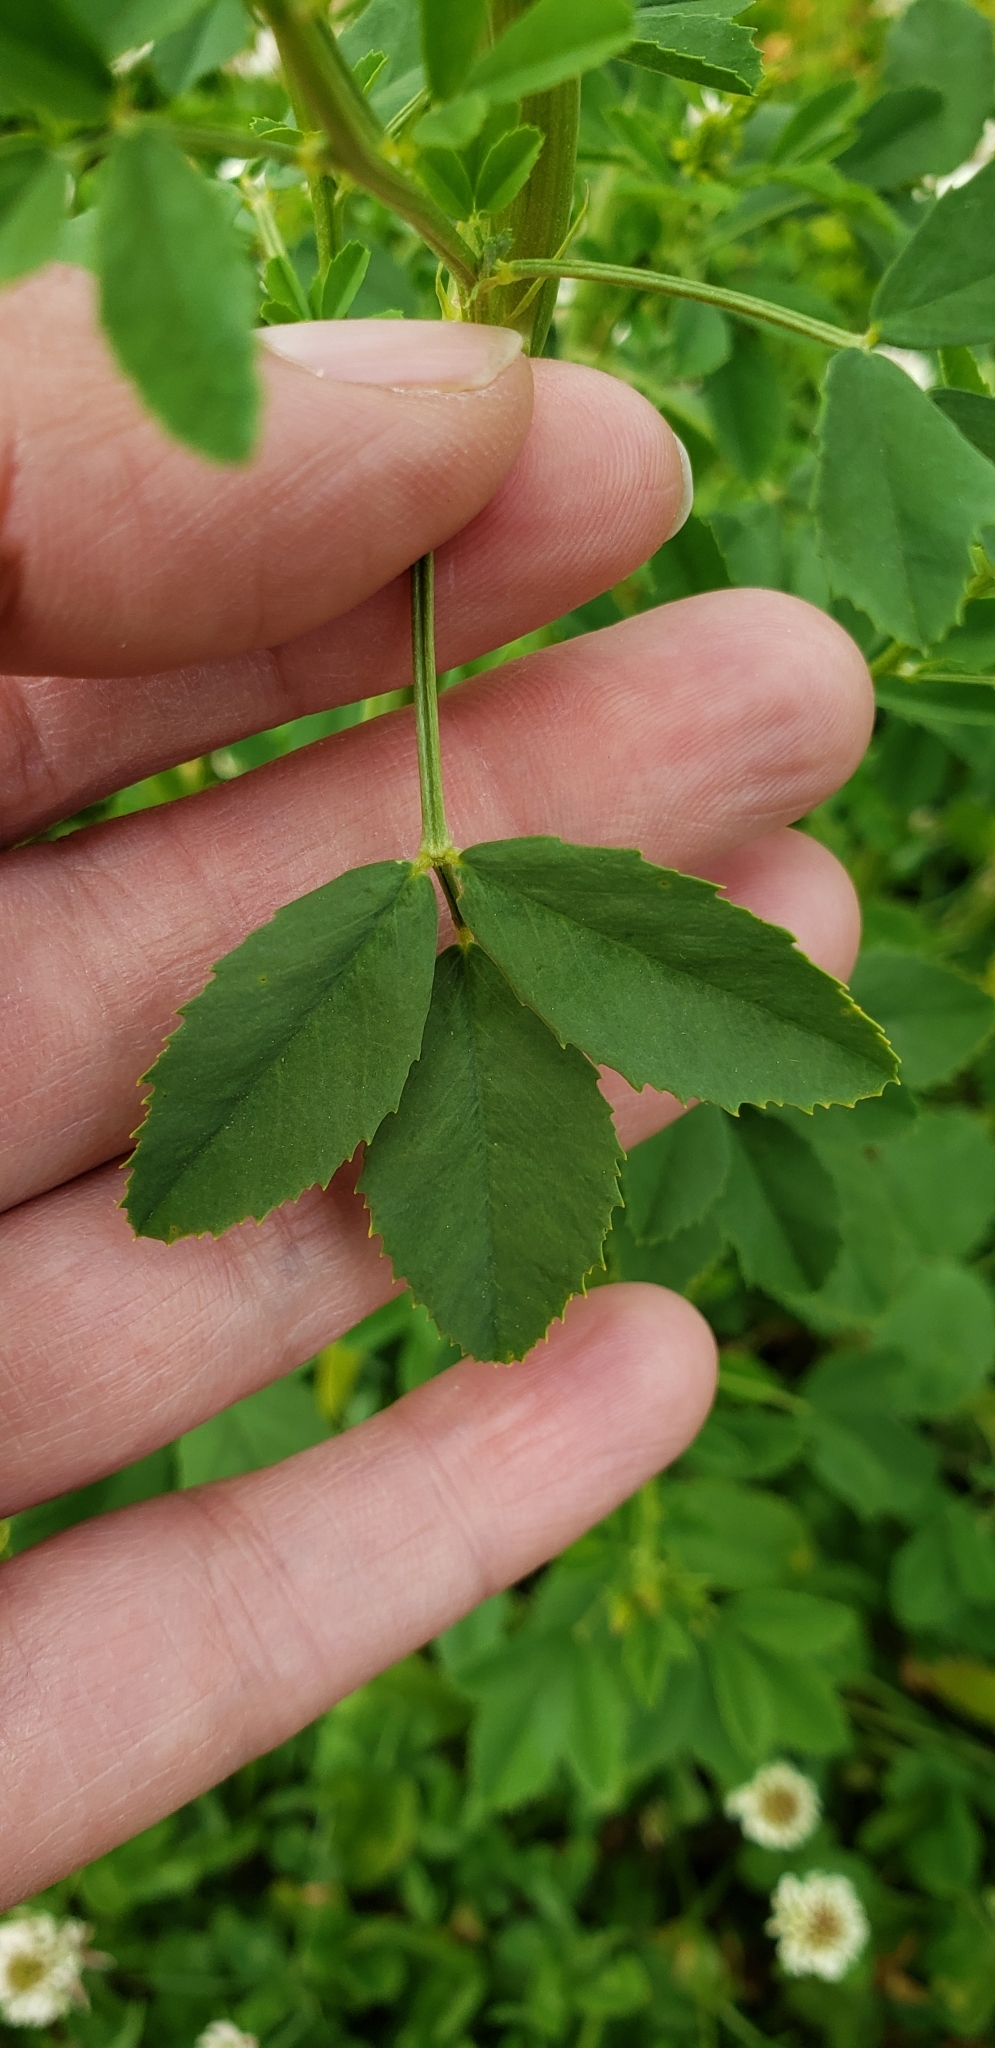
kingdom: Plantae
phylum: Tracheophyta
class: Magnoliopsida
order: Fabales
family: Fabaceae
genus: Melilotus
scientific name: Melilotus officinalis
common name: Sweetclover
